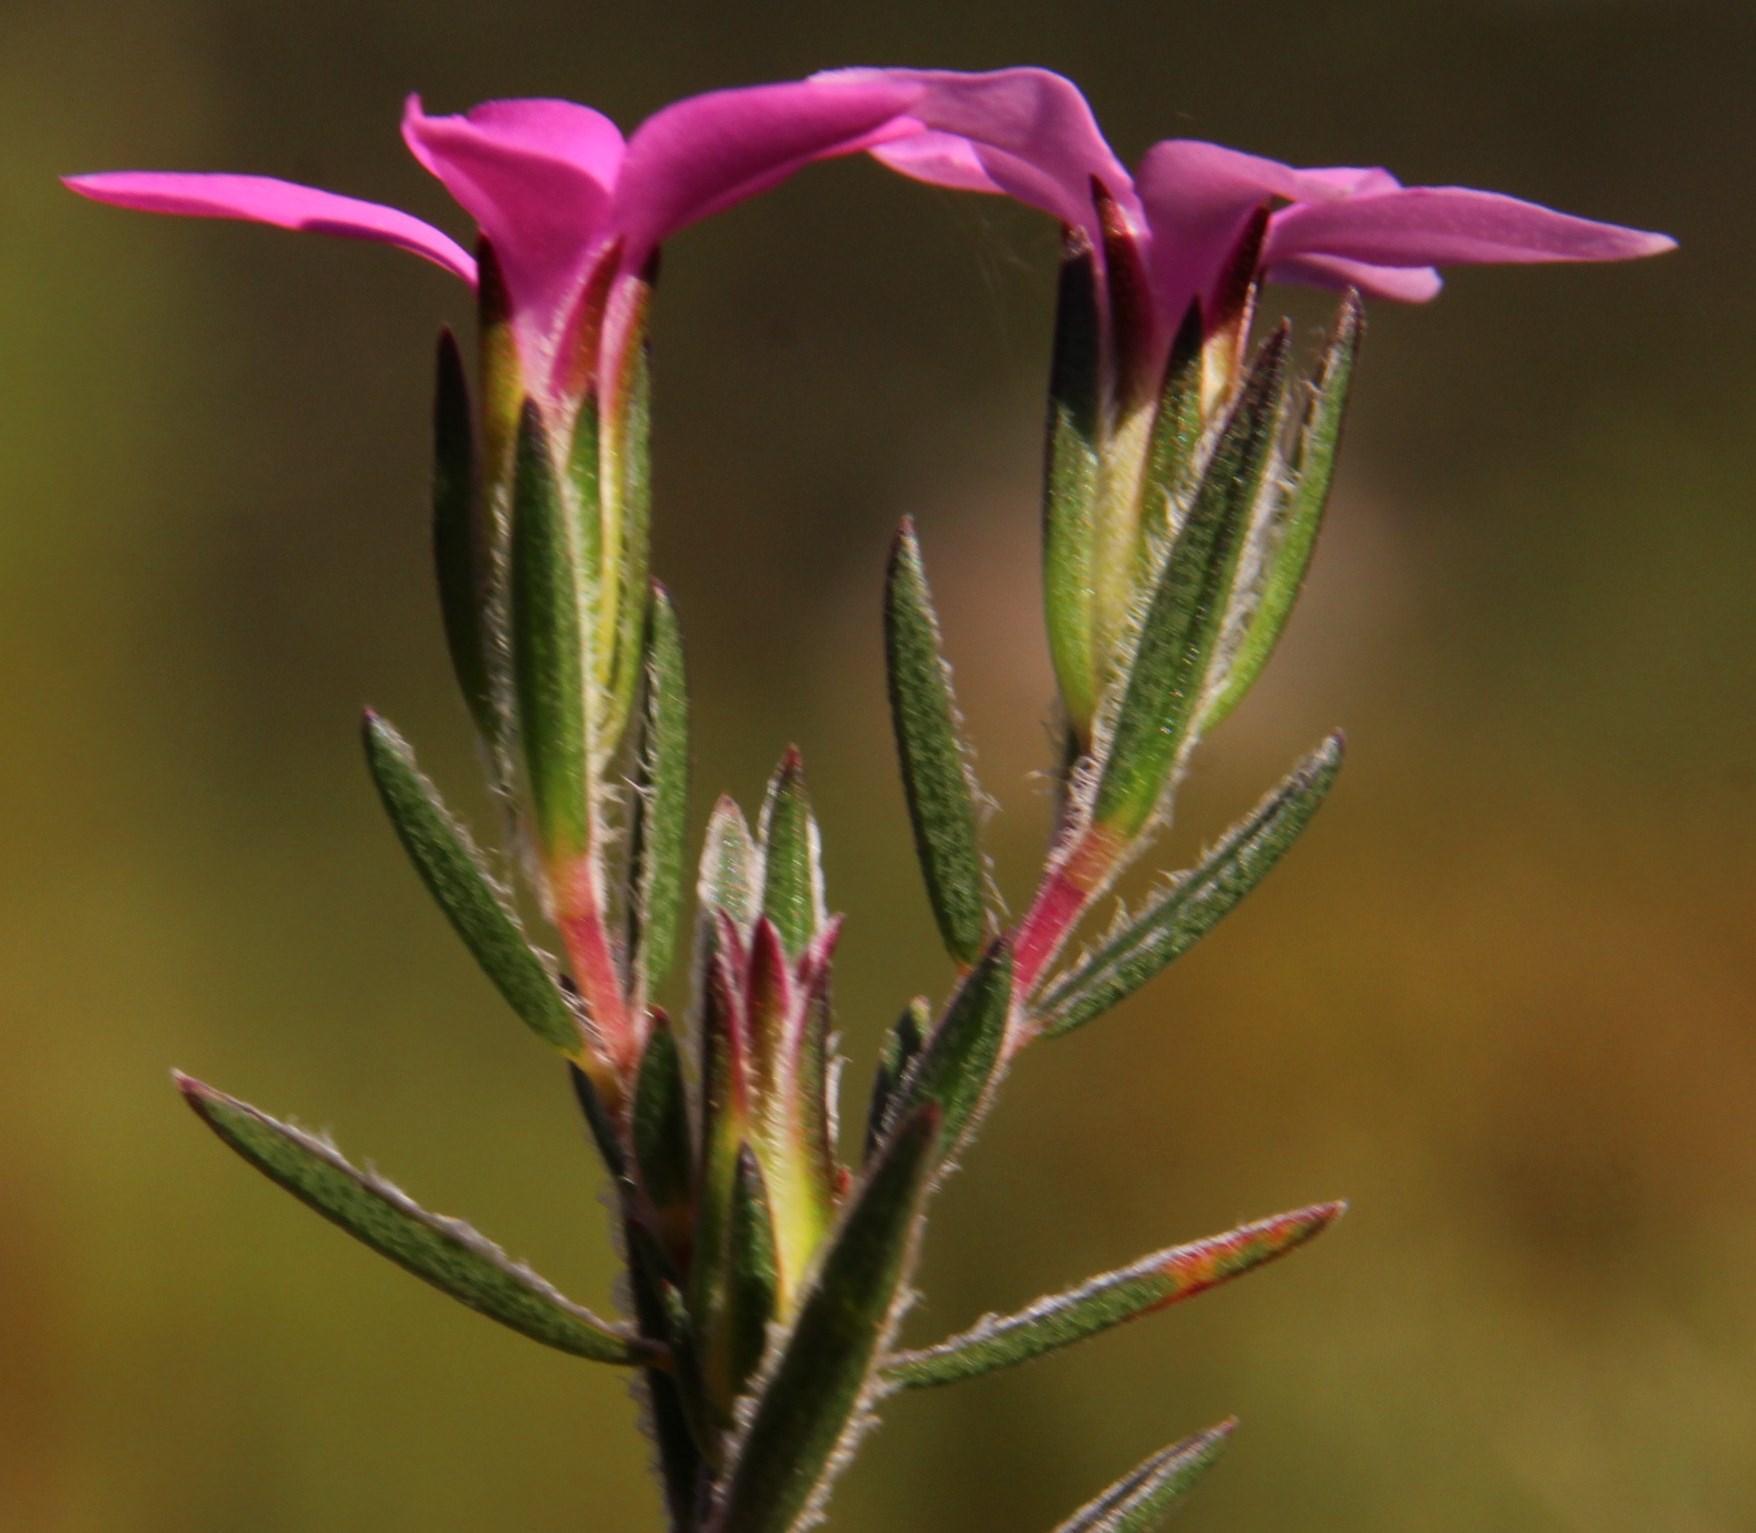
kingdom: Plantae
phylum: Tracheophyta
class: Magnoliopsida
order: Sapindales
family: Rutaceae
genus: Acmadenia
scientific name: Acmadenia trigona
